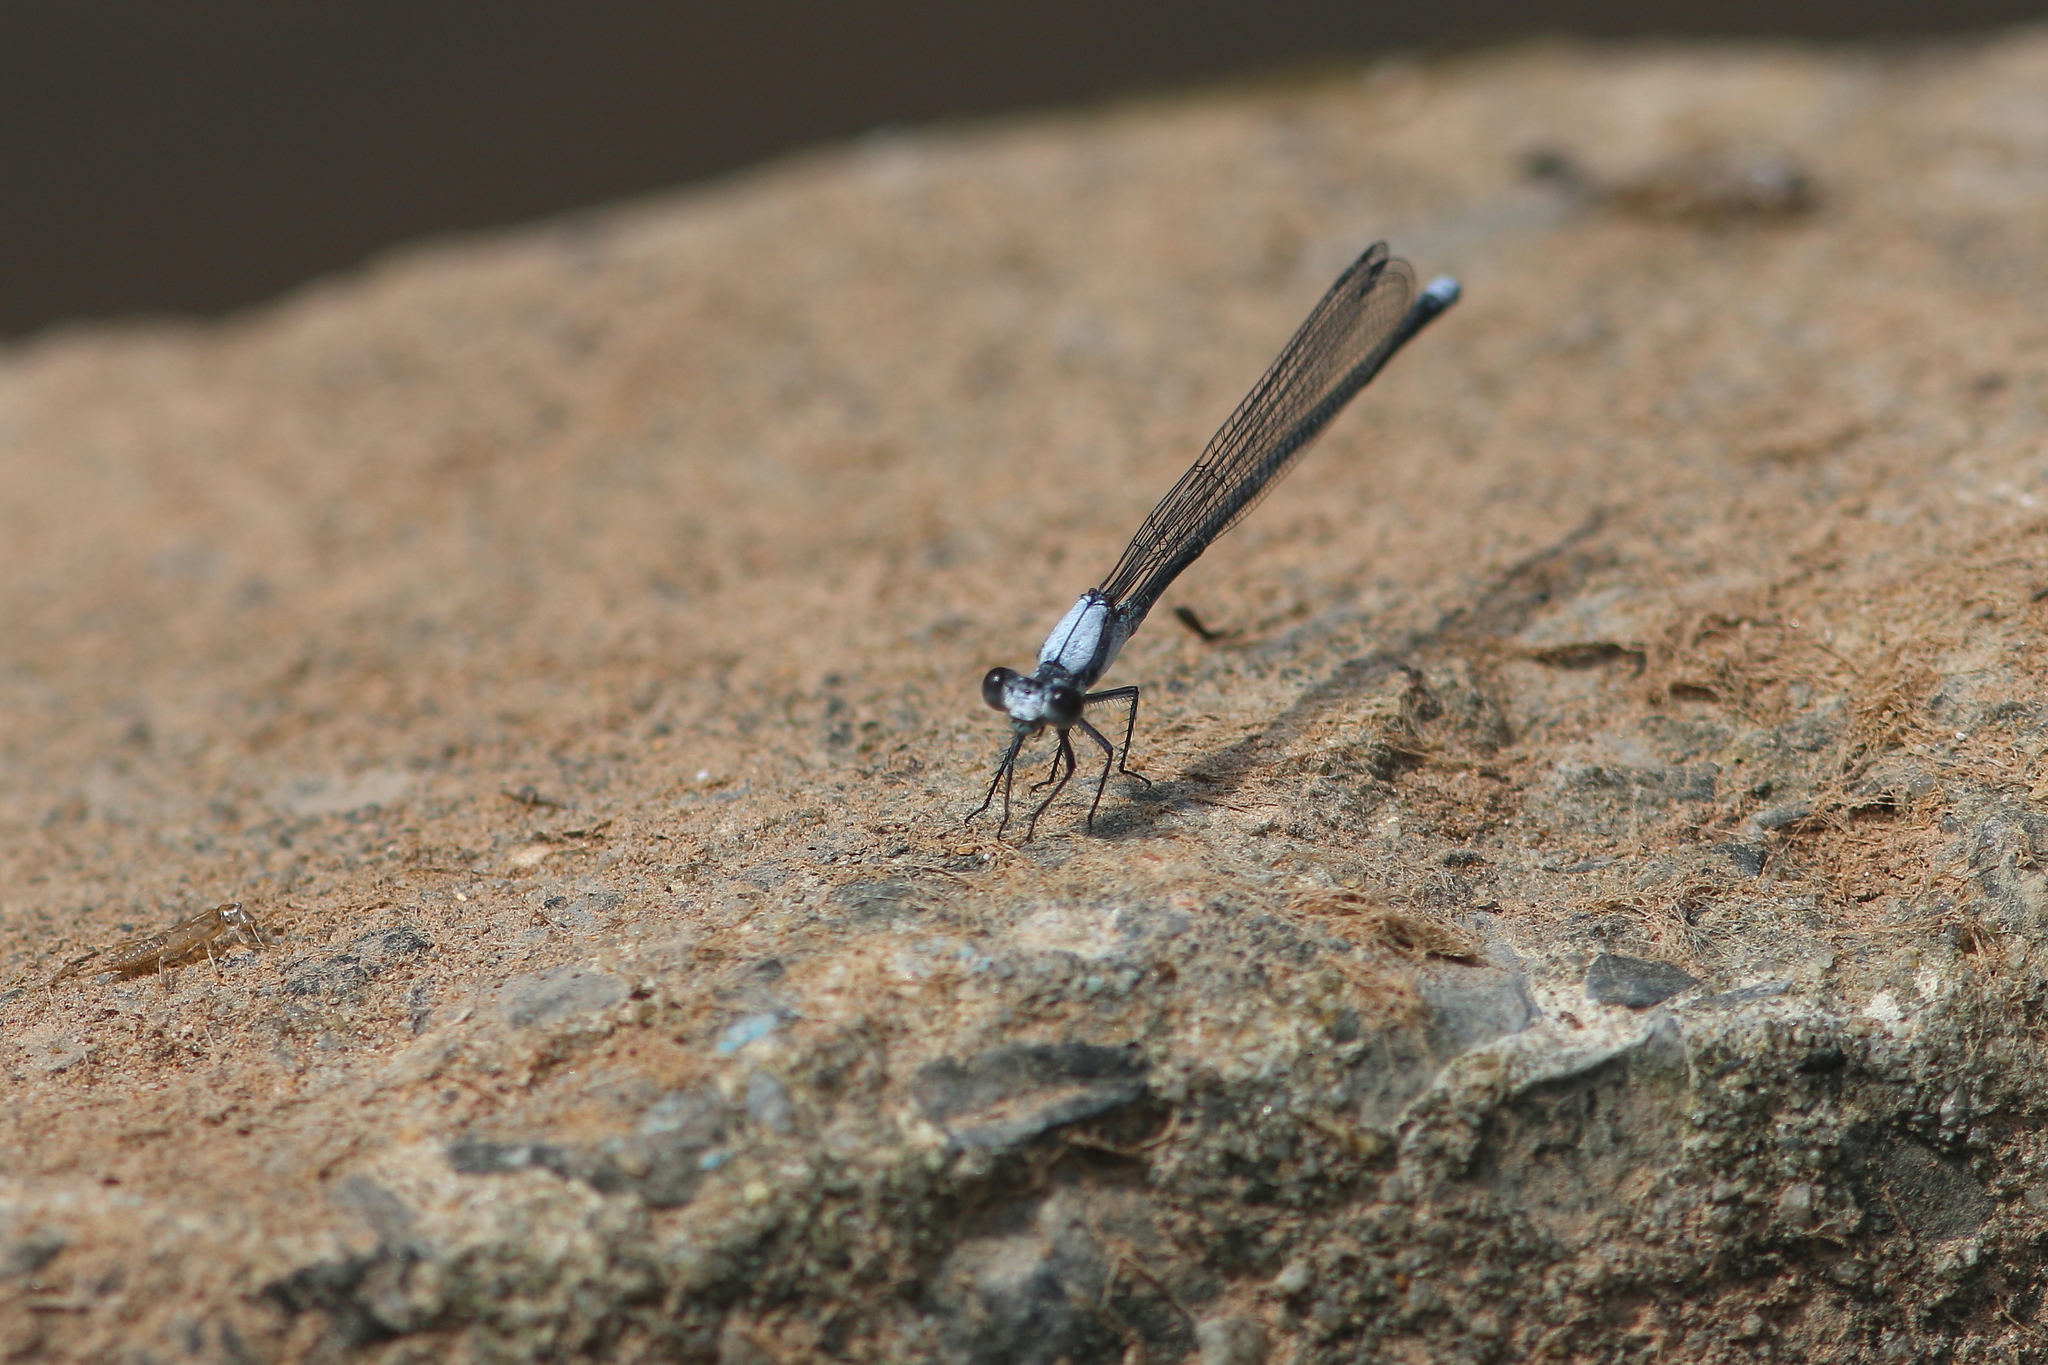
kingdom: Animalia
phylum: Arthropoda
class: Insecta
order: Odonata
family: Coenagrionidae
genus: Argia
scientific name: Argia moesta
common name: Powdered dancer
